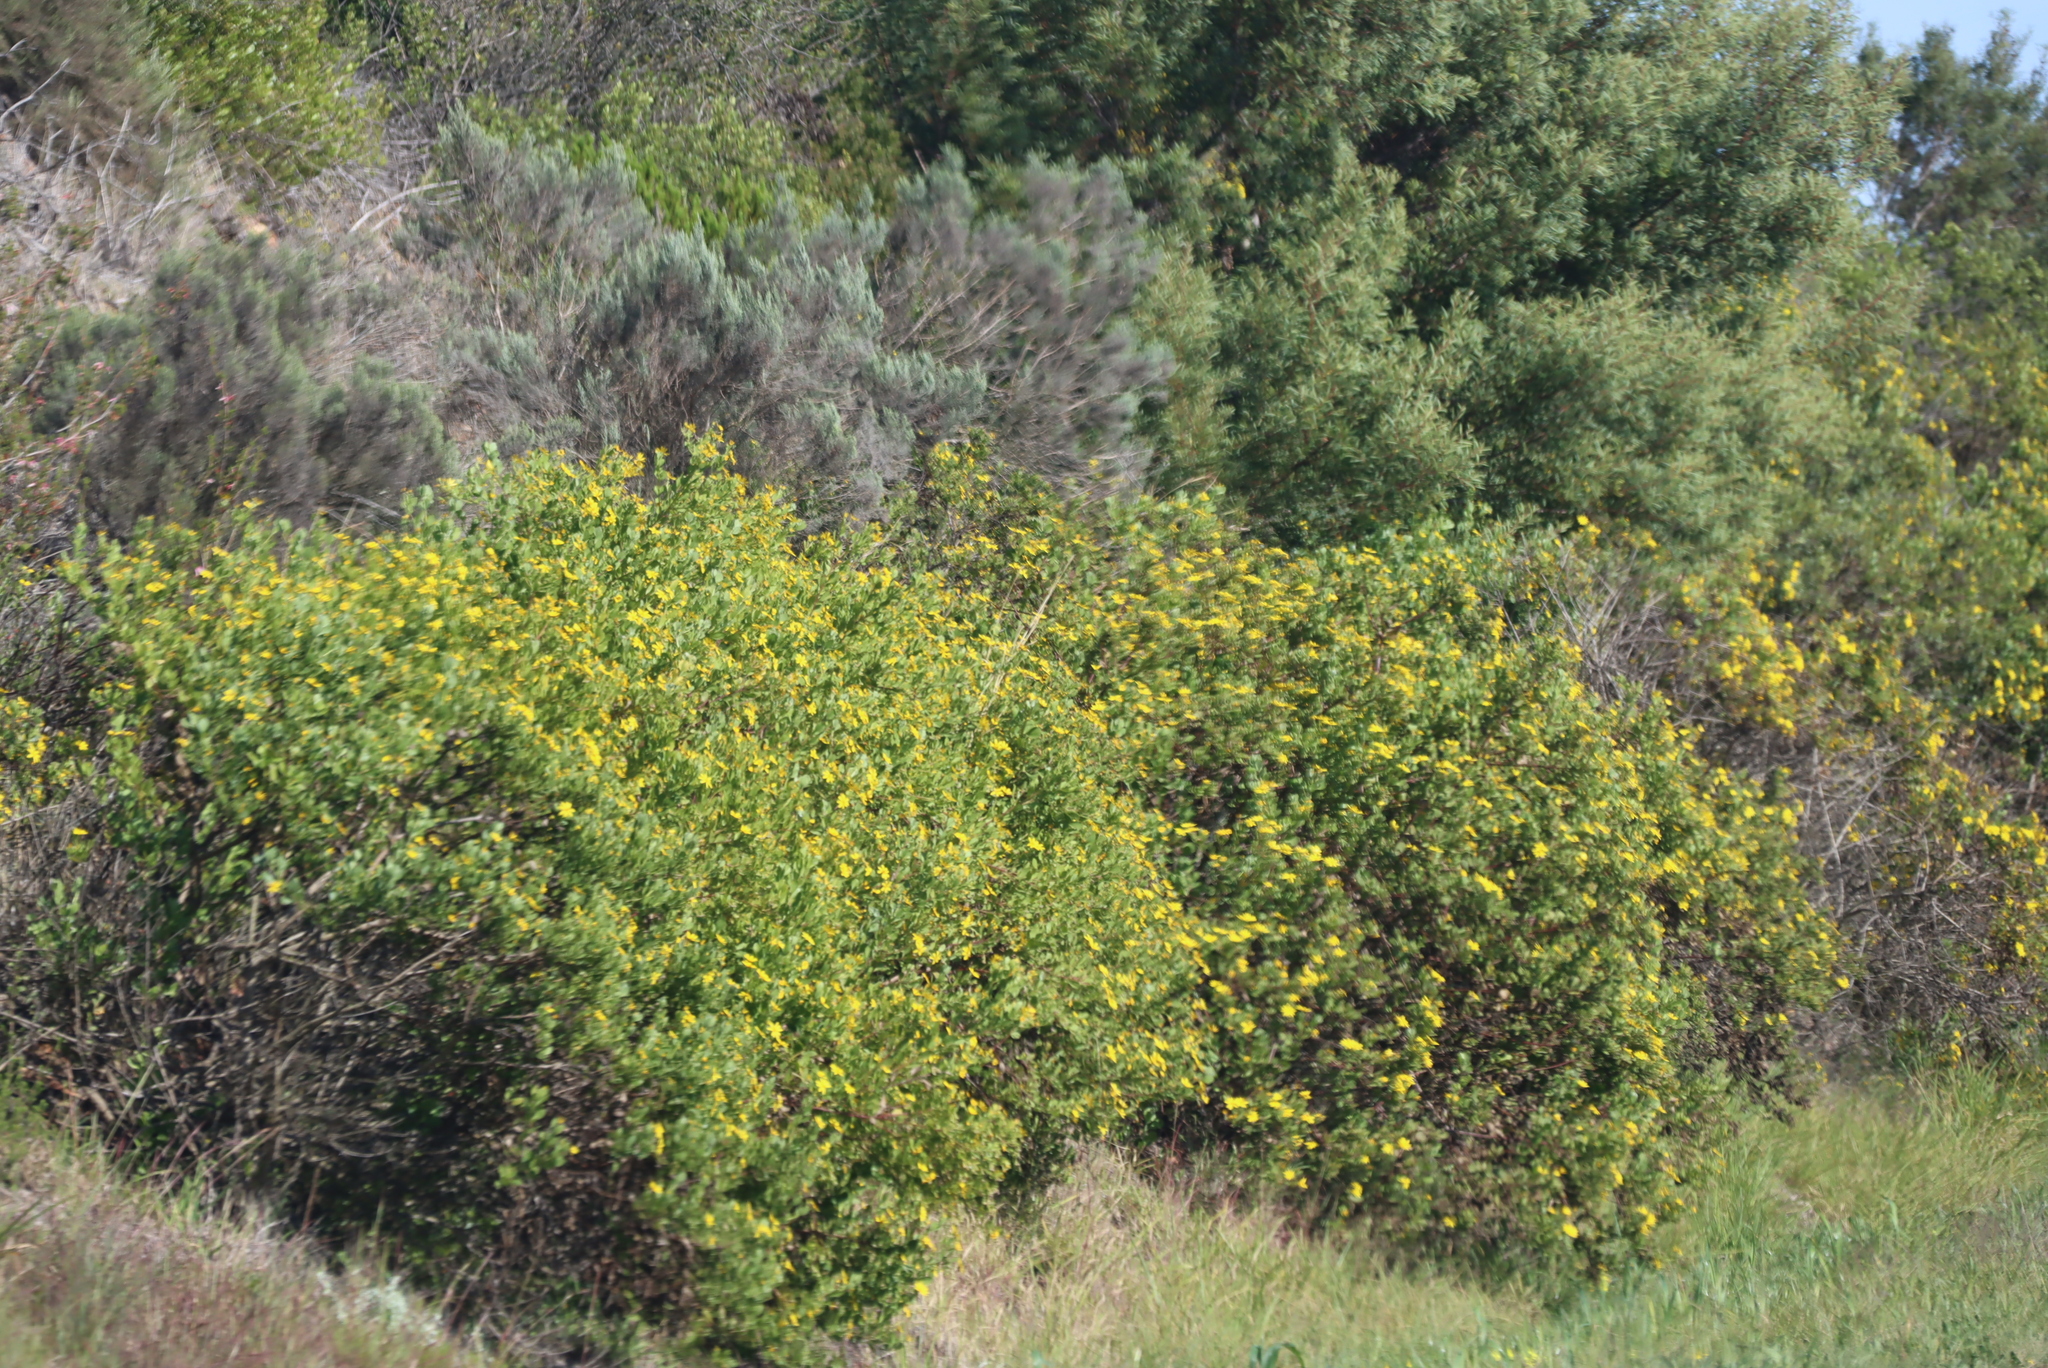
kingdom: Plantae
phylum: Tracheophyta
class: Magnoliopsida
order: Asterales
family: Asteraceae
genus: Dicerothamnus
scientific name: Dicerothamnus rhinocerotis
